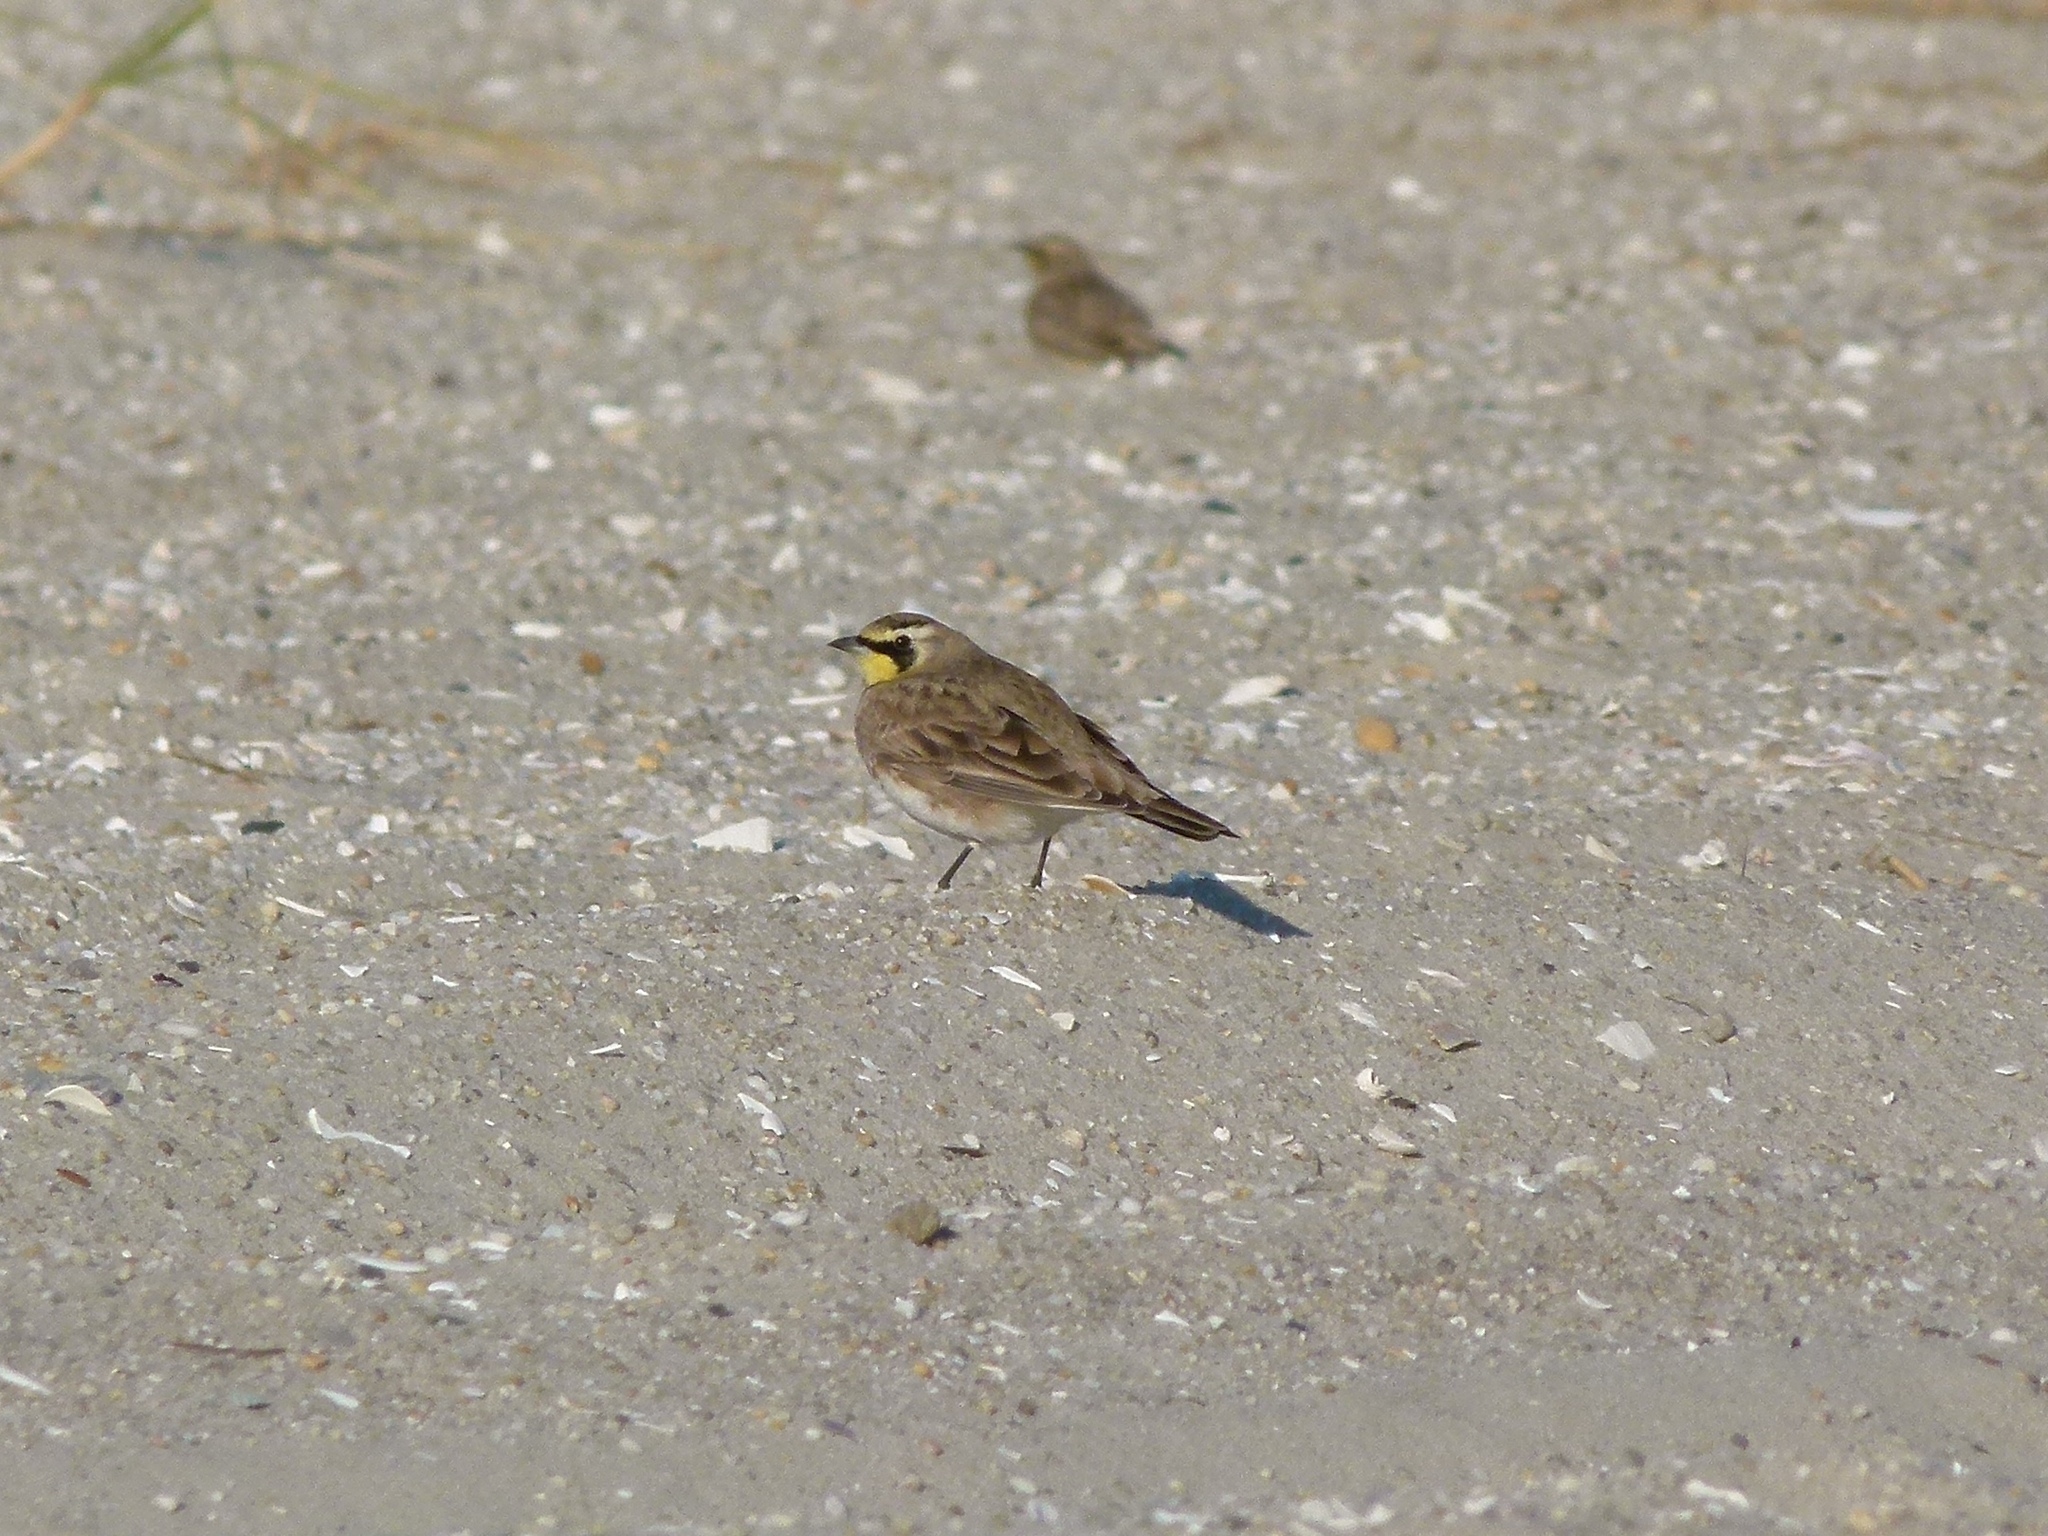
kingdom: Animalia
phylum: Chordata
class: Aves
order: Passeriformes
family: Alaudidae
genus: Eremophila
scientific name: Eremophila alpestris
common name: Horned lark
